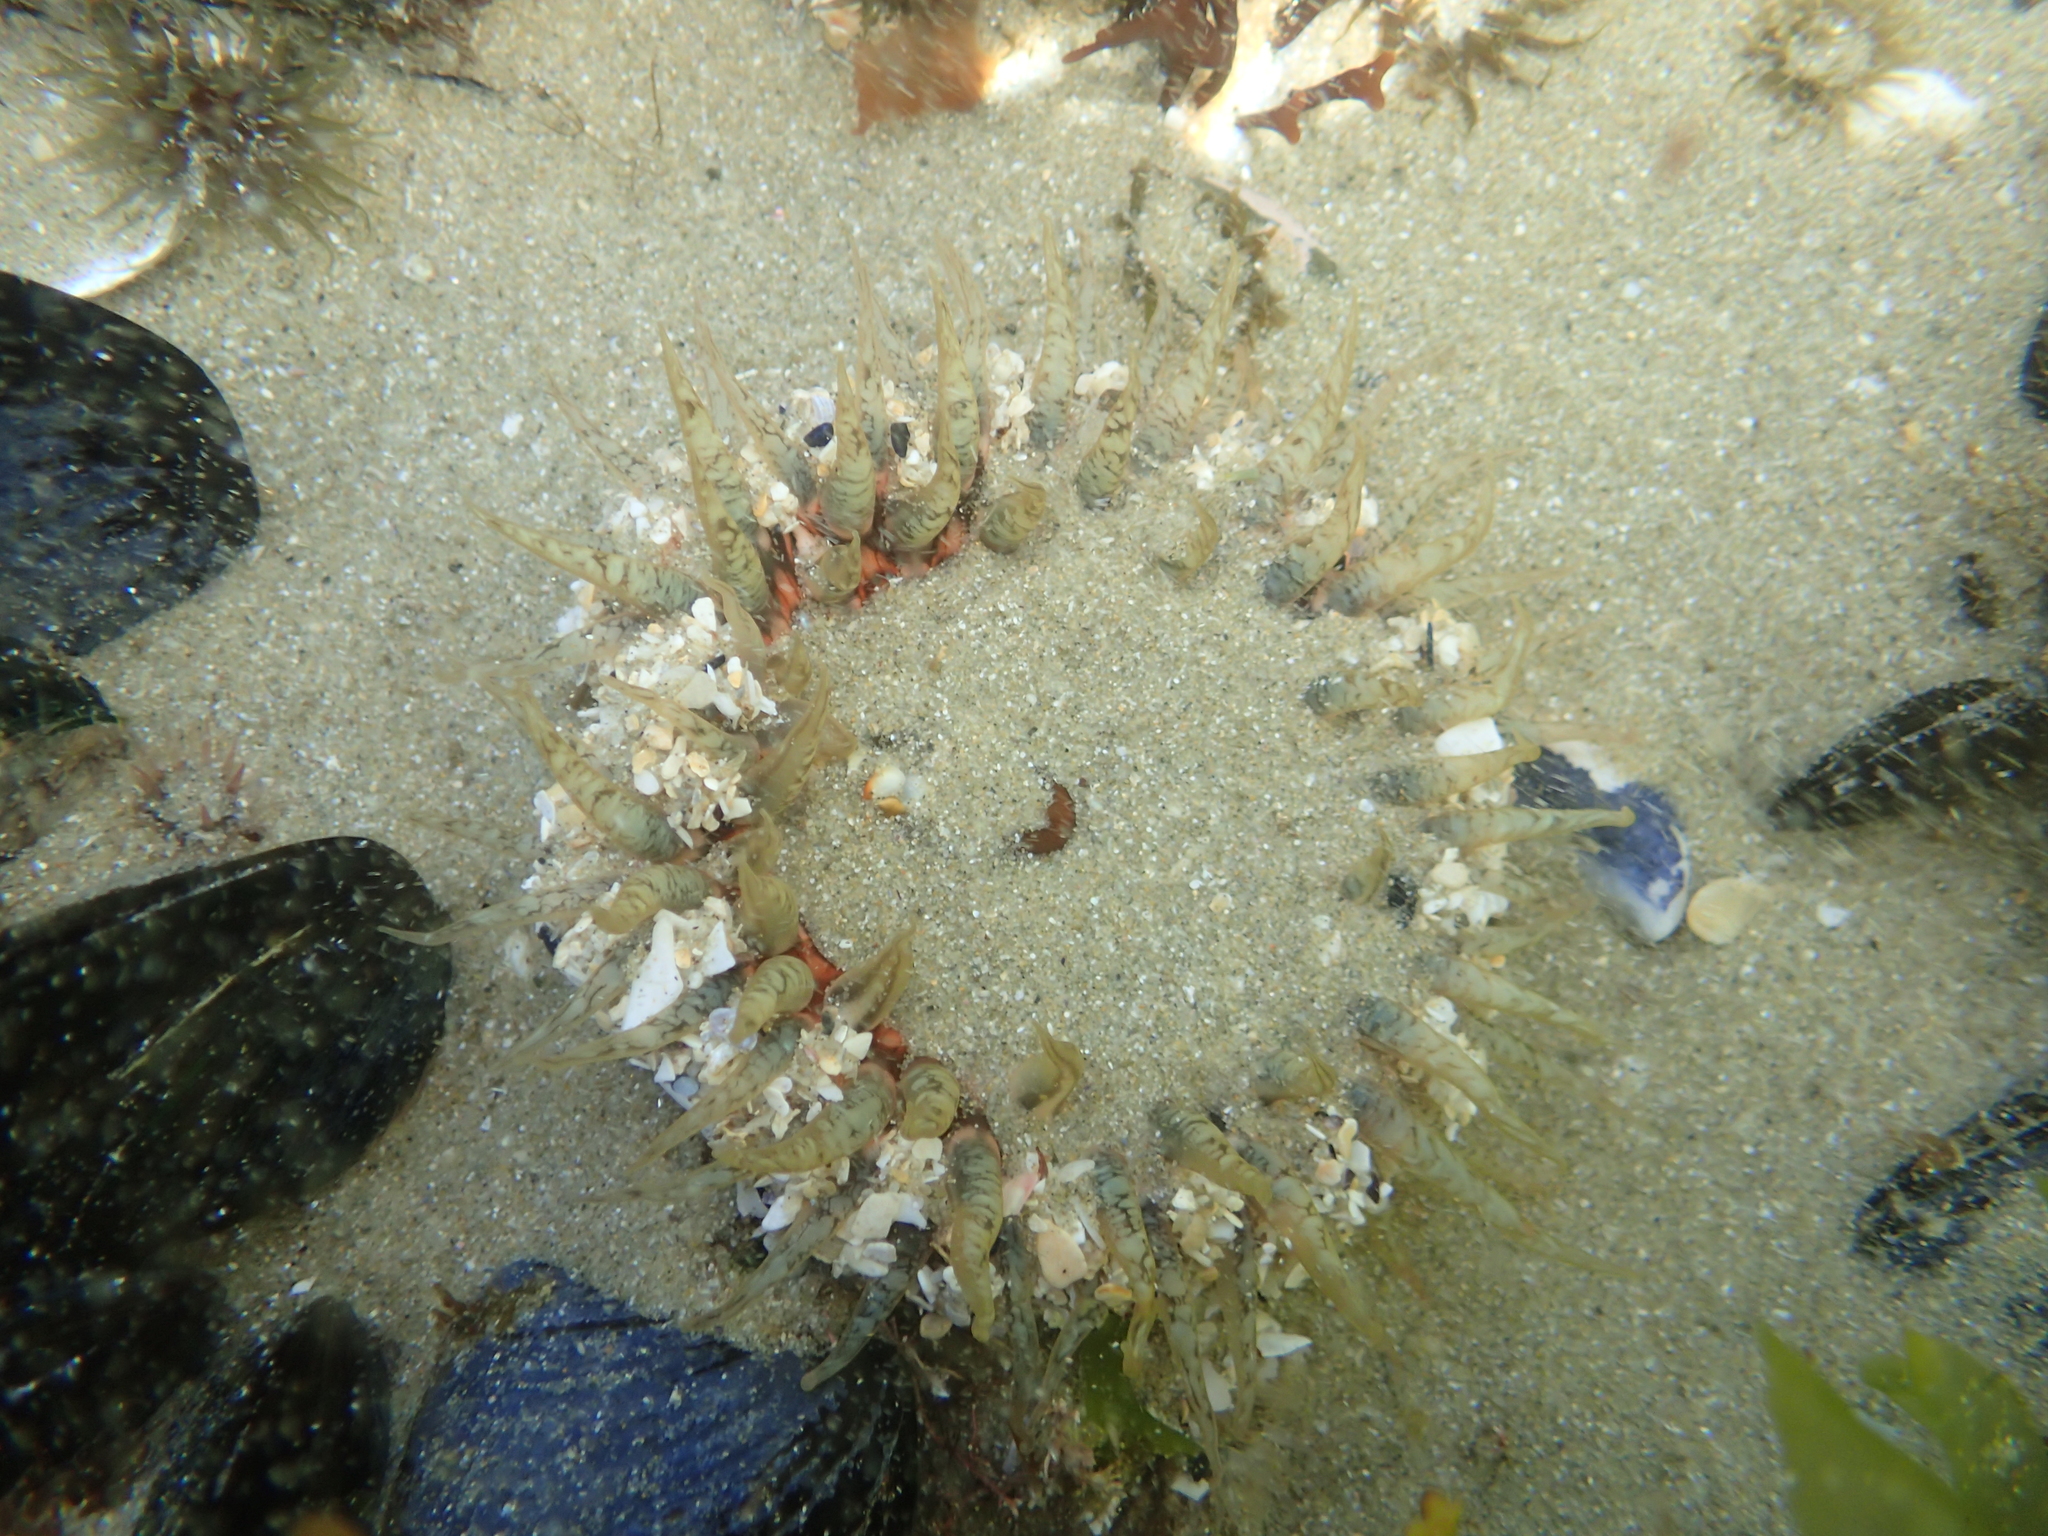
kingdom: Animalia
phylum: Cnidaria
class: Anthozoa
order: Actiniaria
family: Actiniidae
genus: Oulactis
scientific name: Oulactis muscosa
